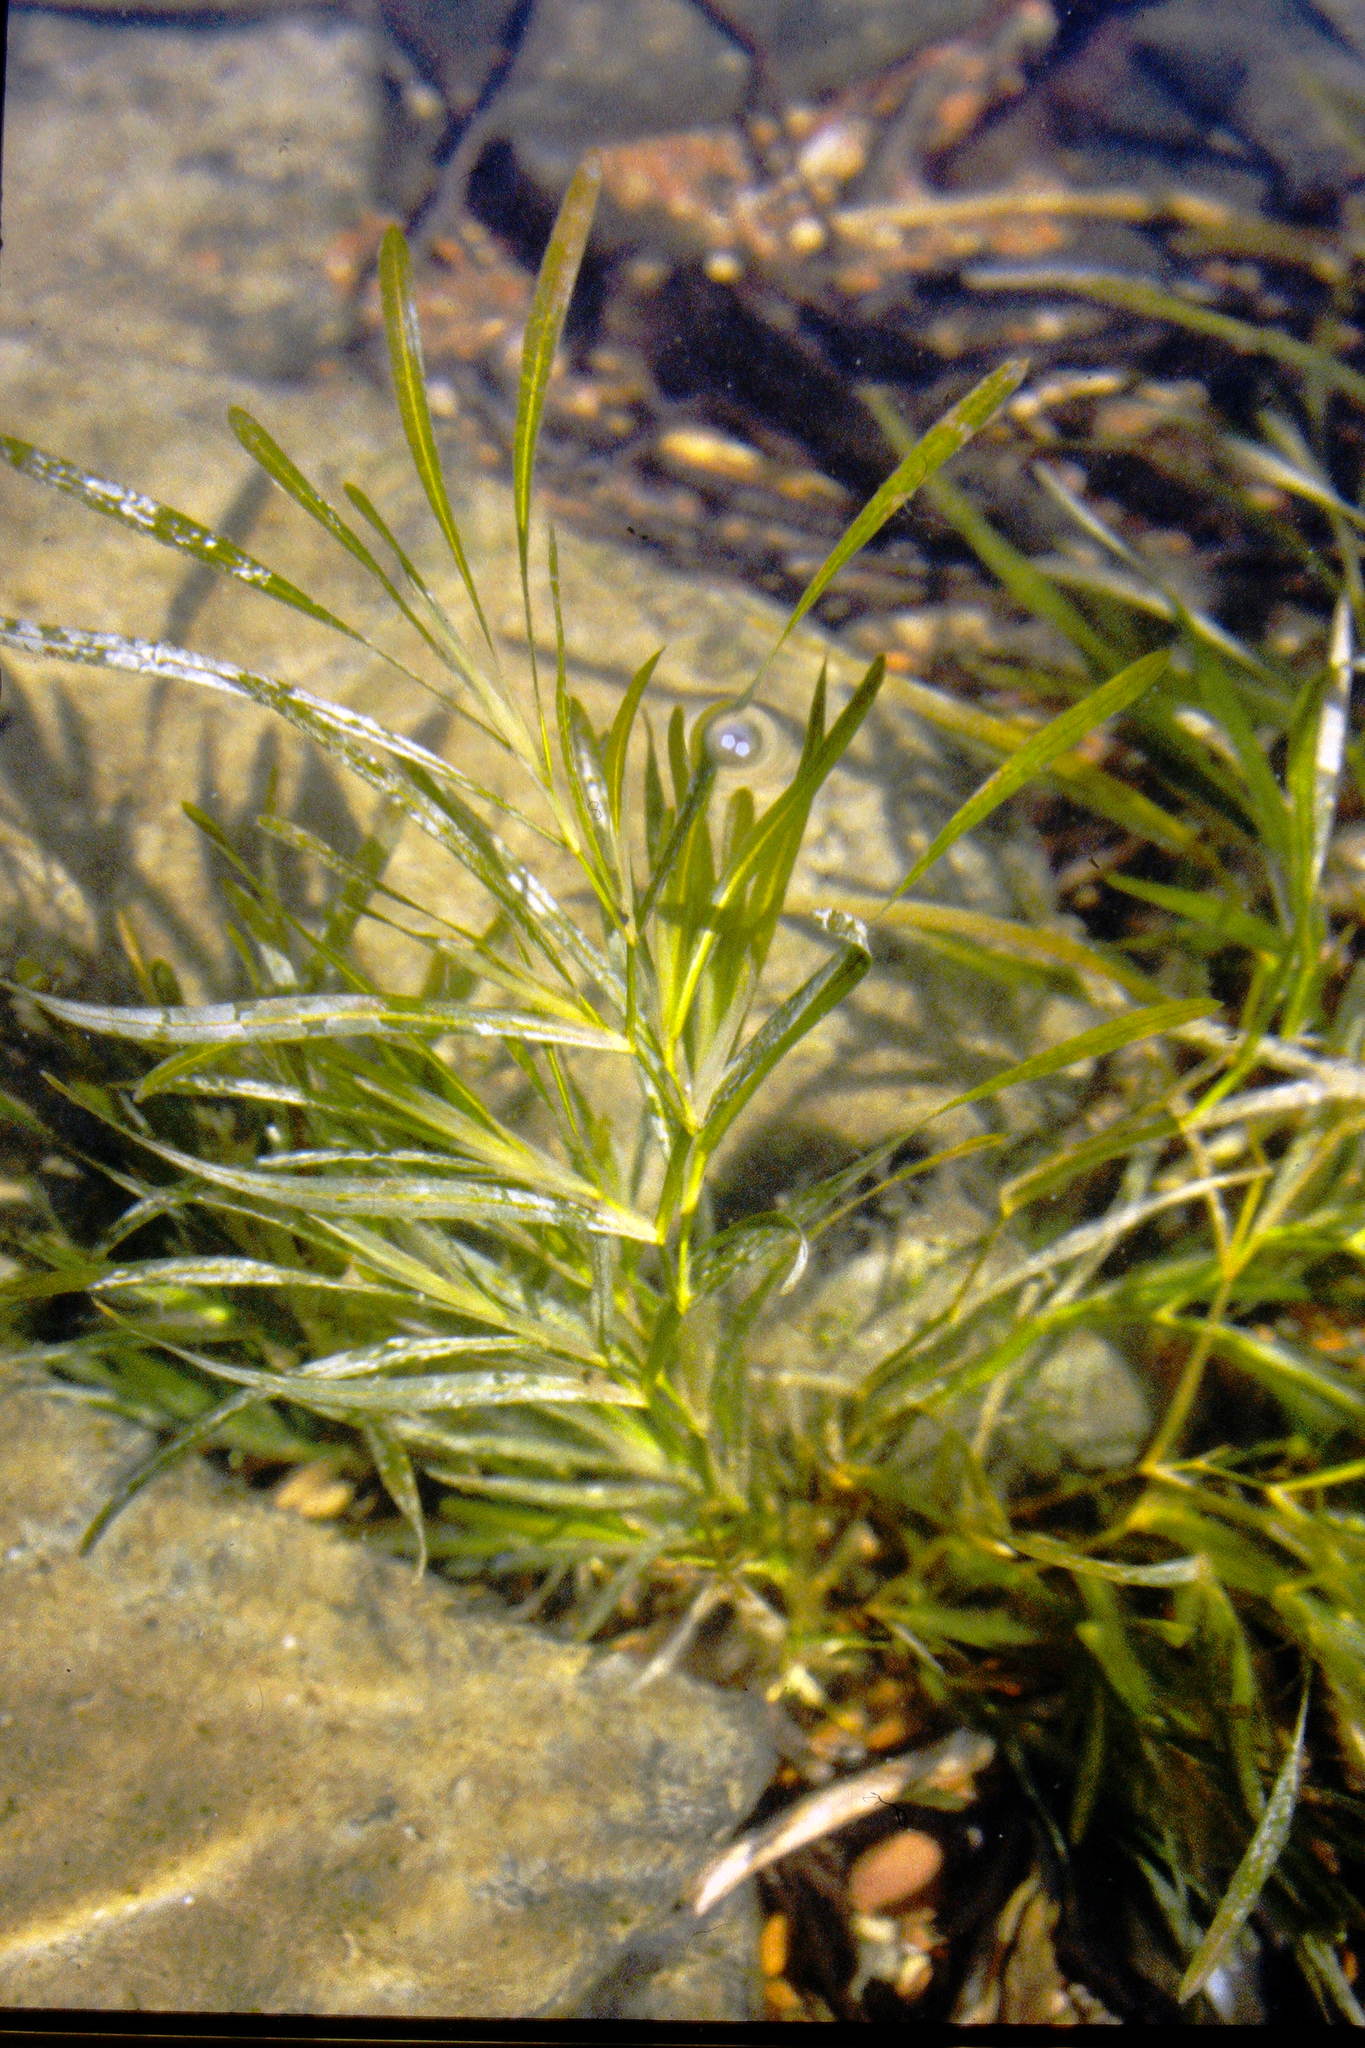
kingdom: Plantae
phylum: Tracheophyta
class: Liliopsida
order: Alismatales
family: Potamogetonaceae
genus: Potamogeton
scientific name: Potamogeton zosteriformis
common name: Eelgrass pondweed
